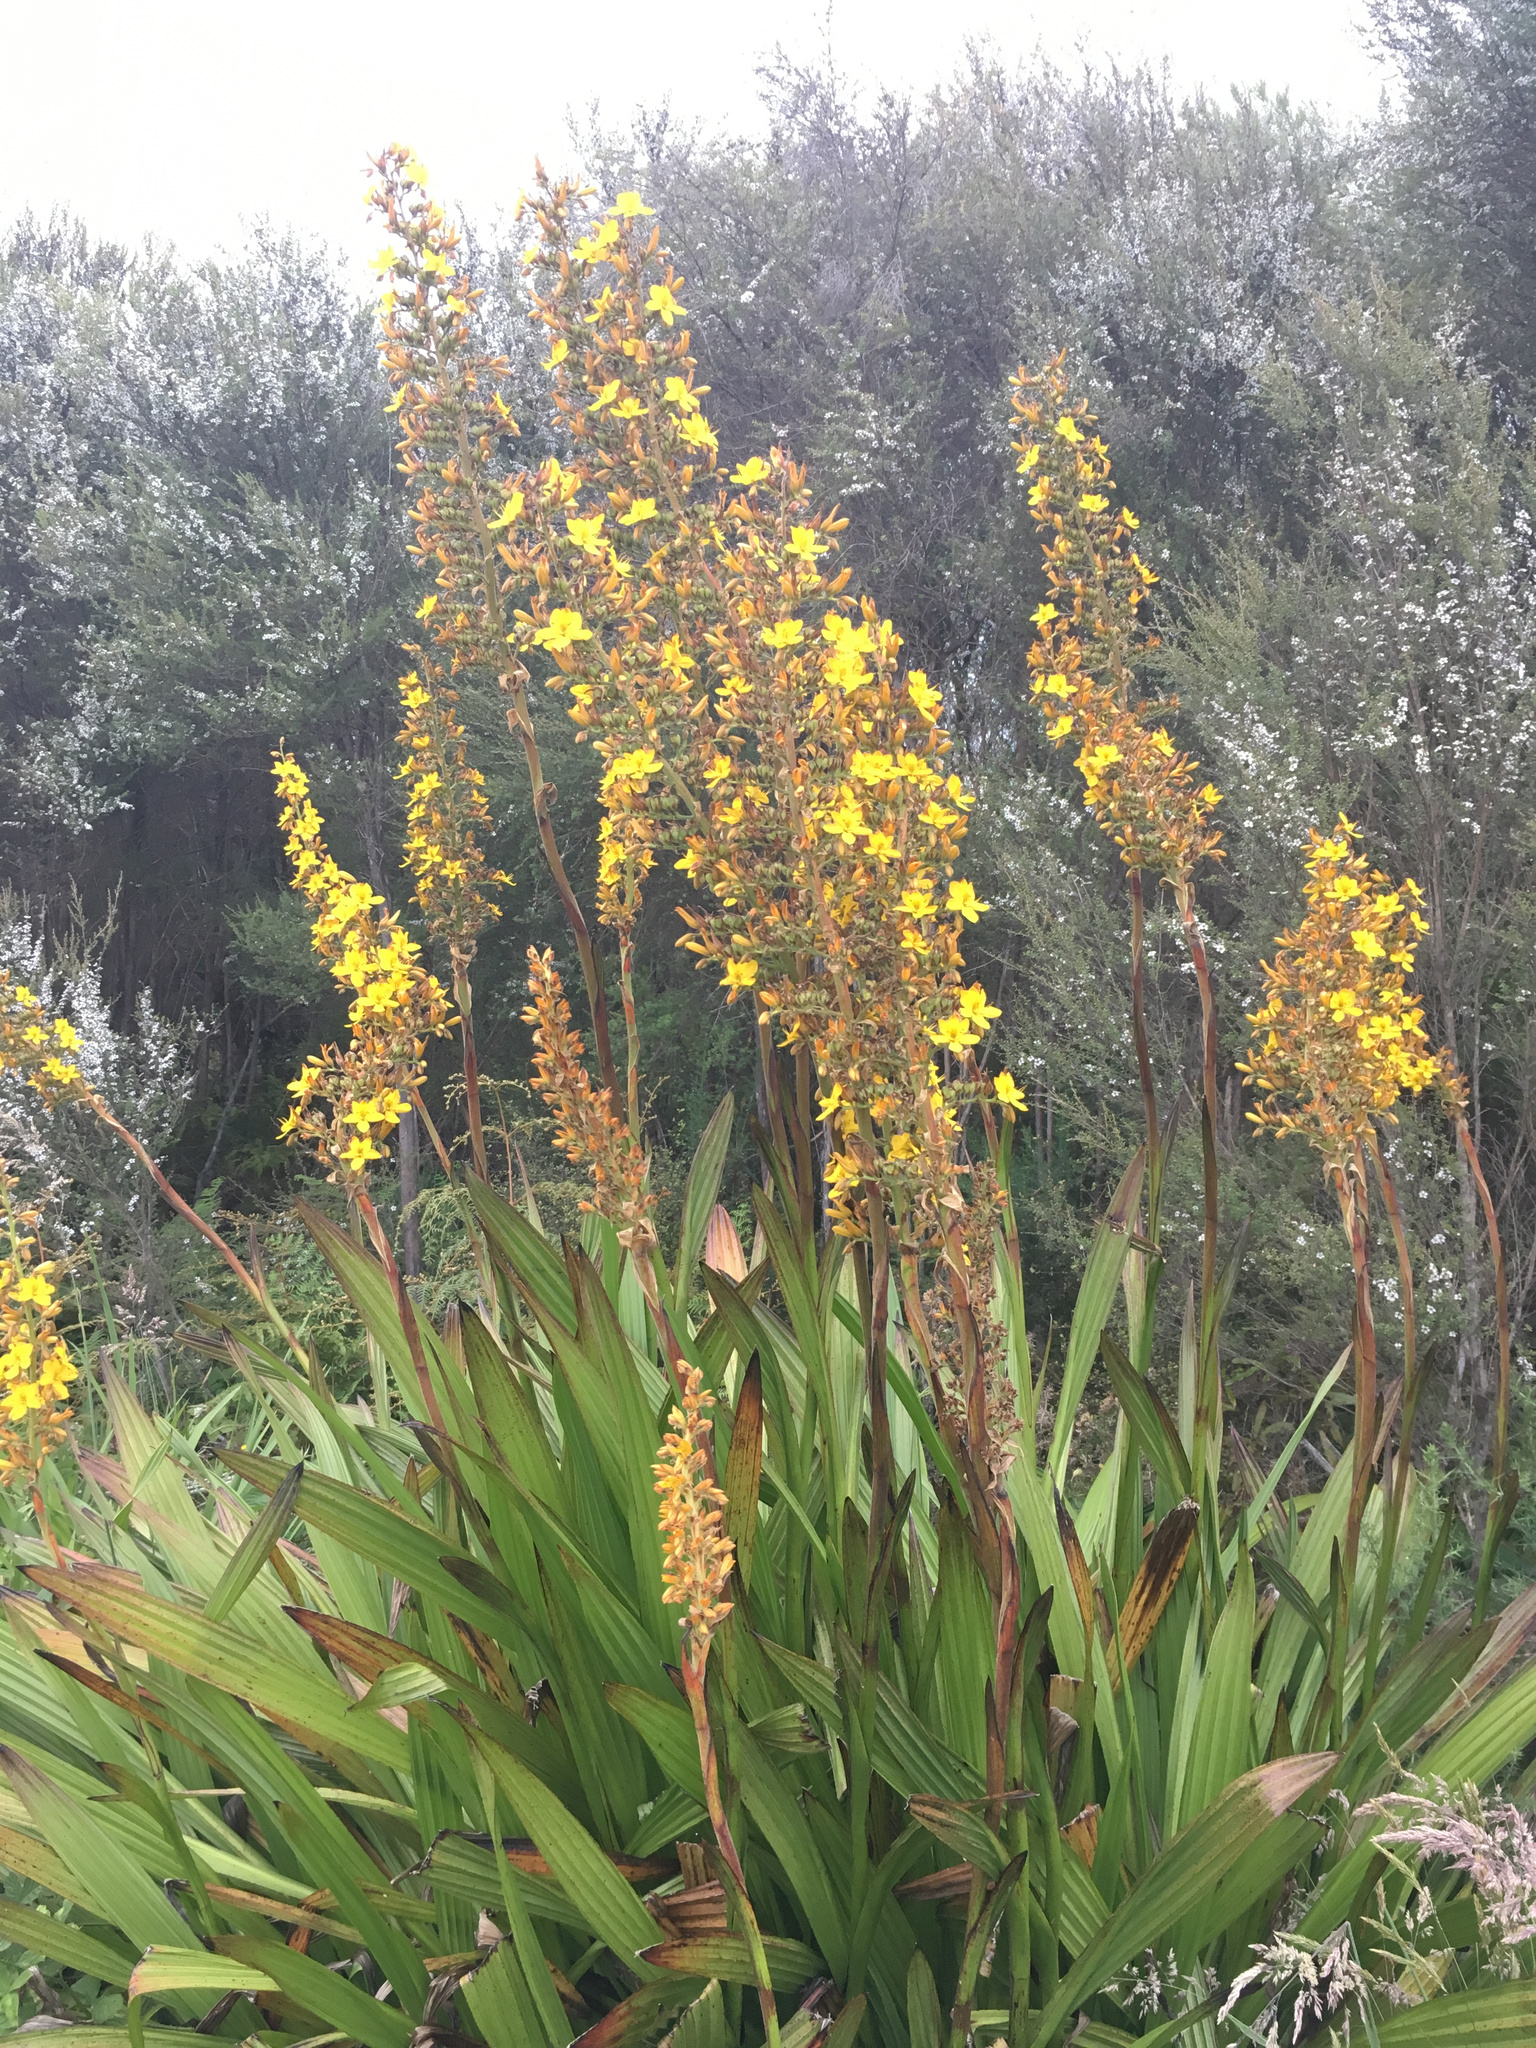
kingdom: Plantae
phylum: Tracheophyta
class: Liliopsida
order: Commelinales
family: Haemodoraceae
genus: Wachendorfia
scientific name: Wachendorfia thyrsiflora
